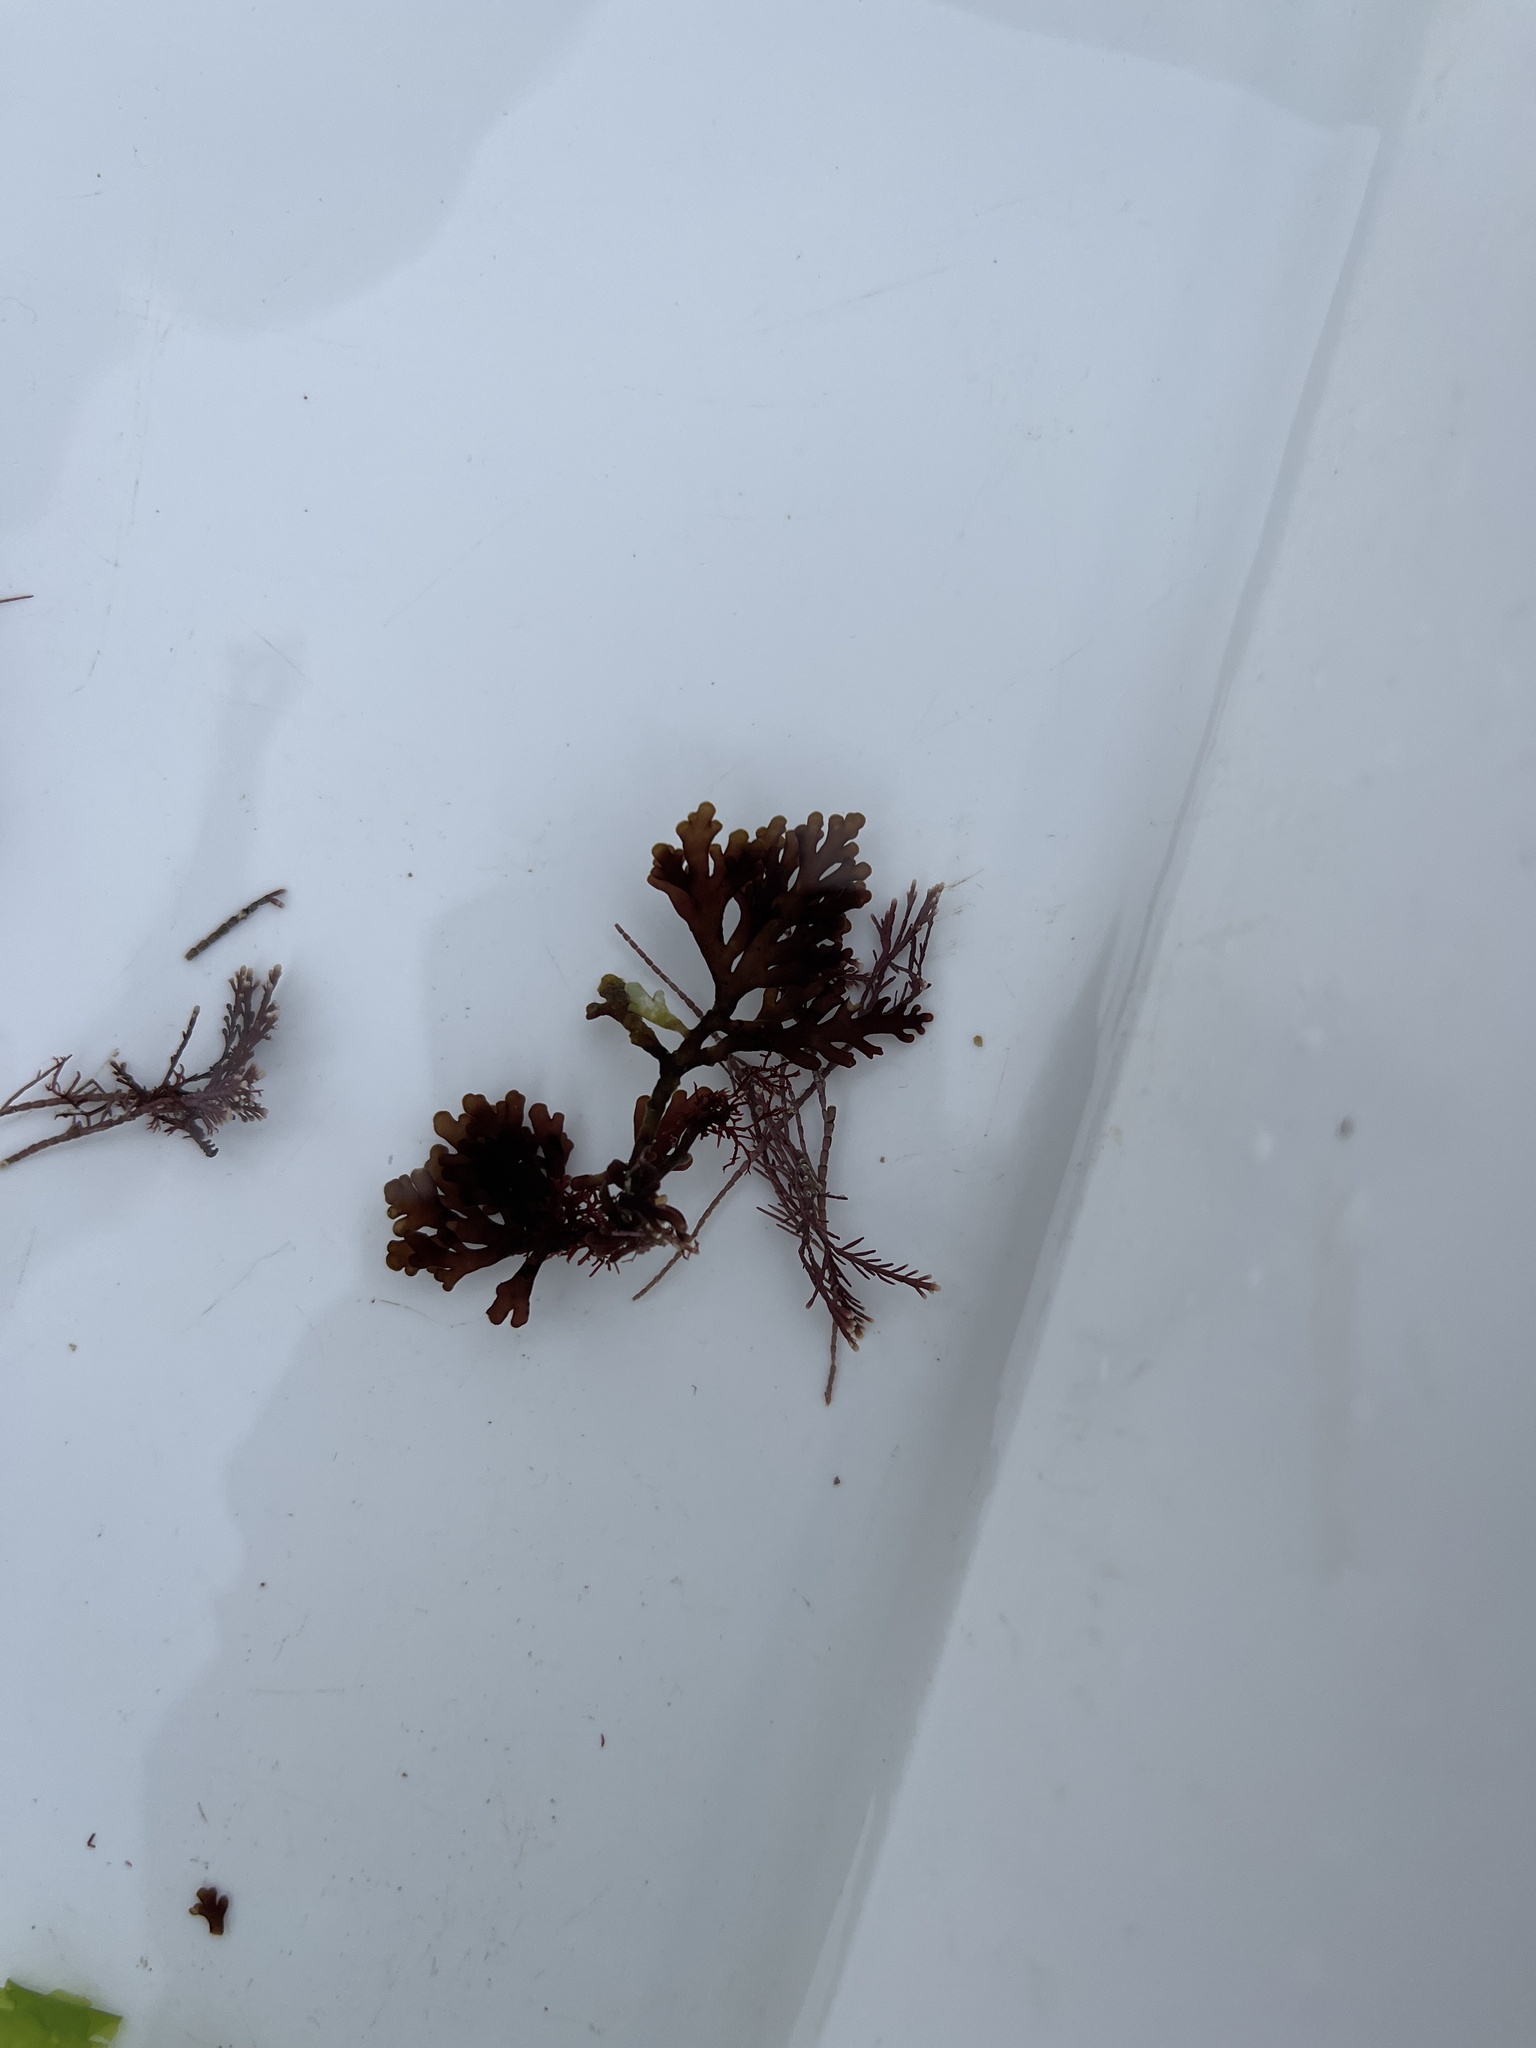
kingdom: Plantae
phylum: Rhodophyta
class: Florideophyceae
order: Ceramiales
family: Rhodomelaceae
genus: Laurencia
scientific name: Laurencia Osmundea pinnatifida
